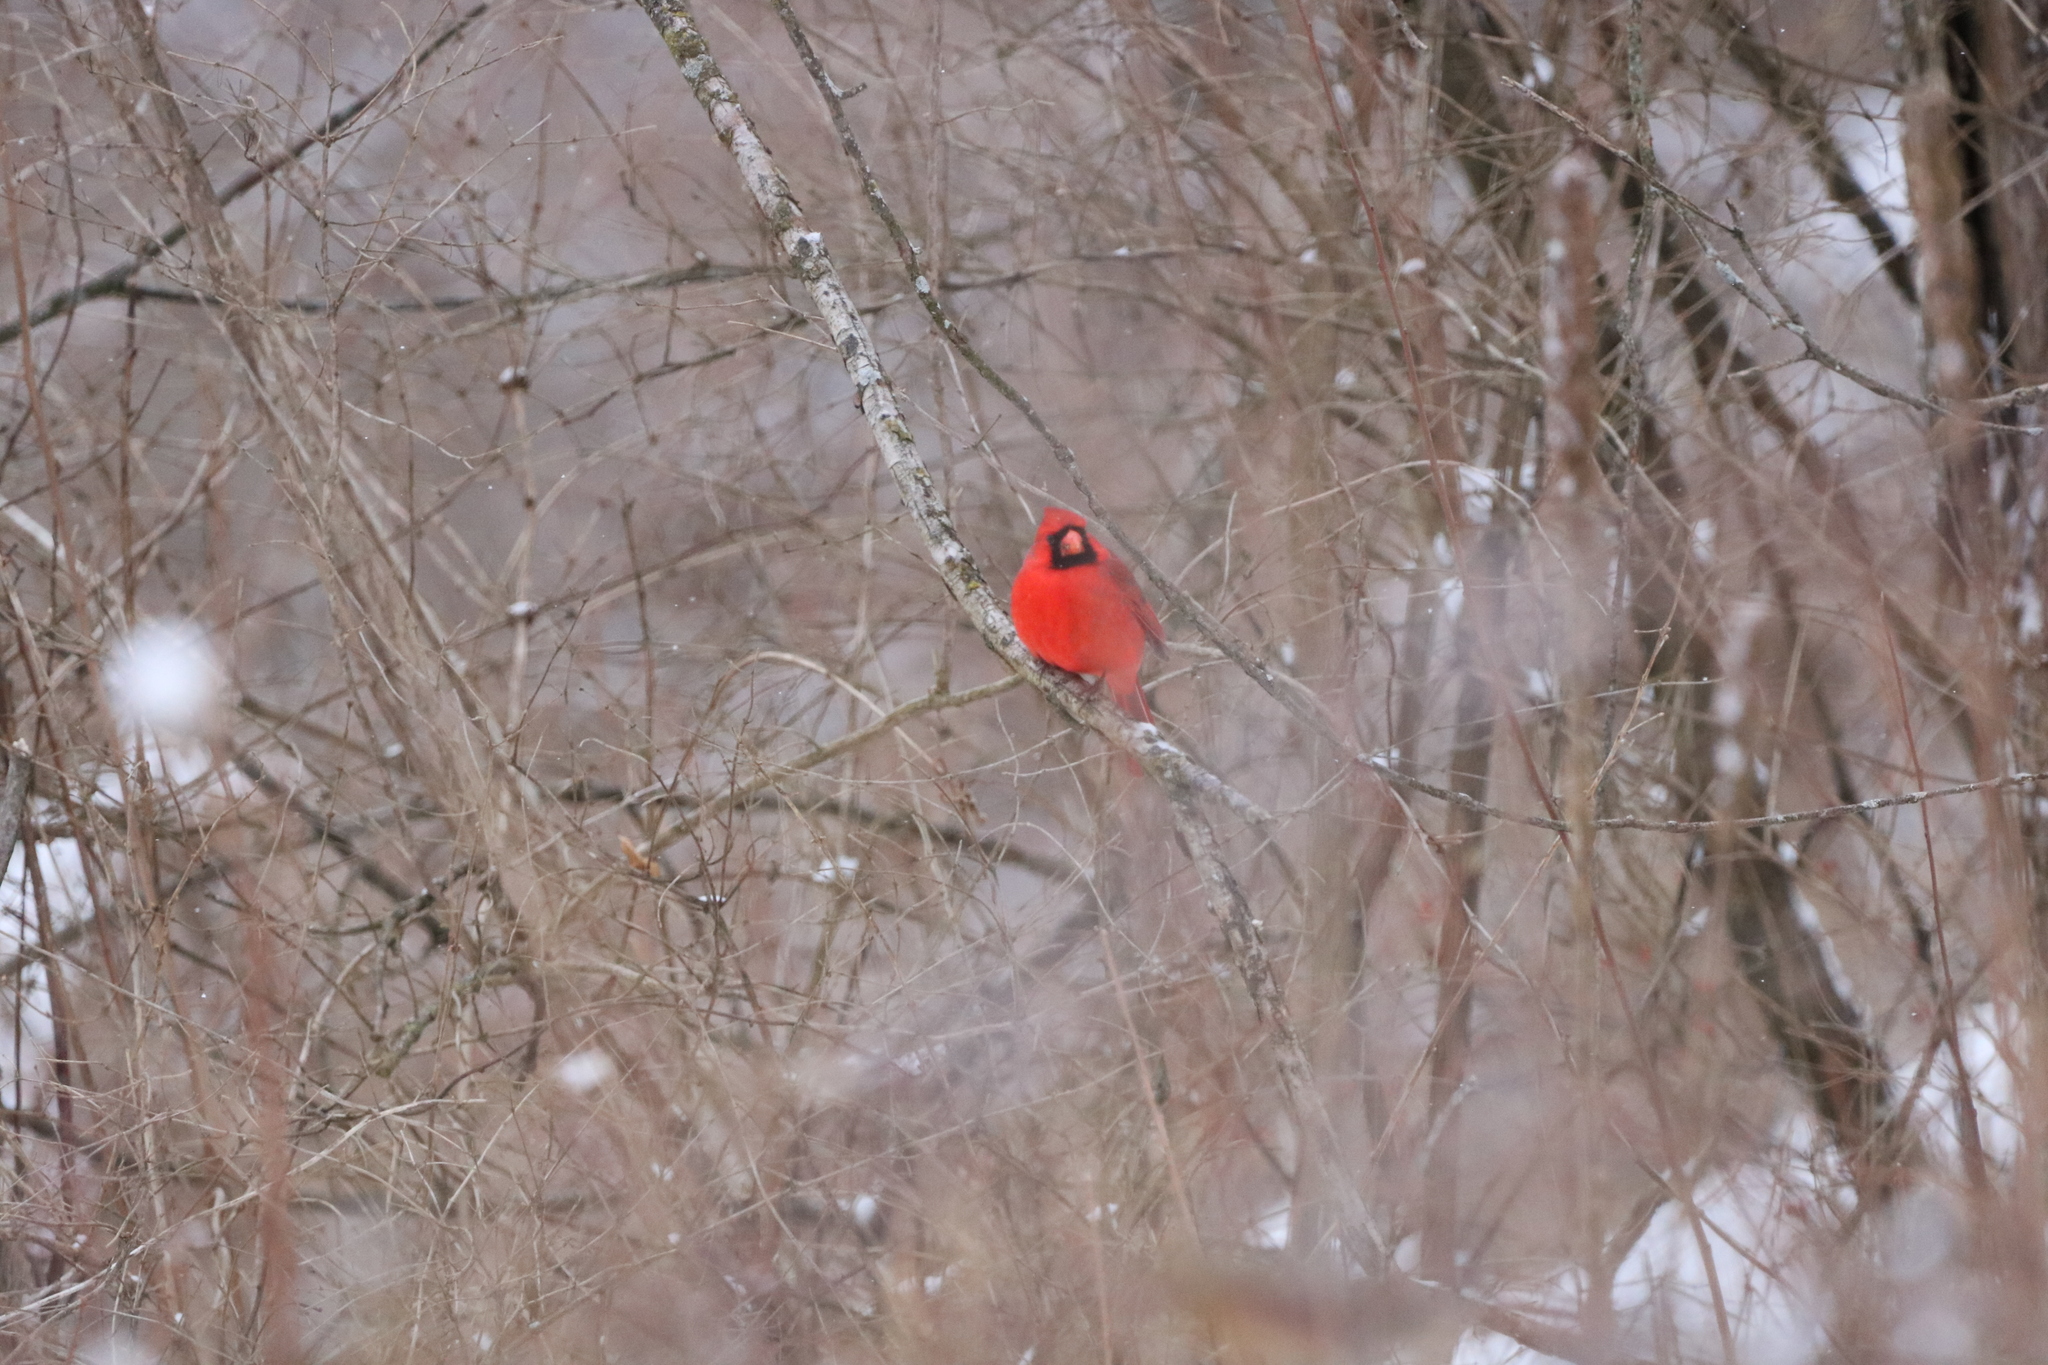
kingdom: Animalia
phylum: Chordata
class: Aves
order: Passeriformes
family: Cardinalidae
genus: Cardinalis
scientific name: Cardinalis cardinalis
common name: Northern cardinal
